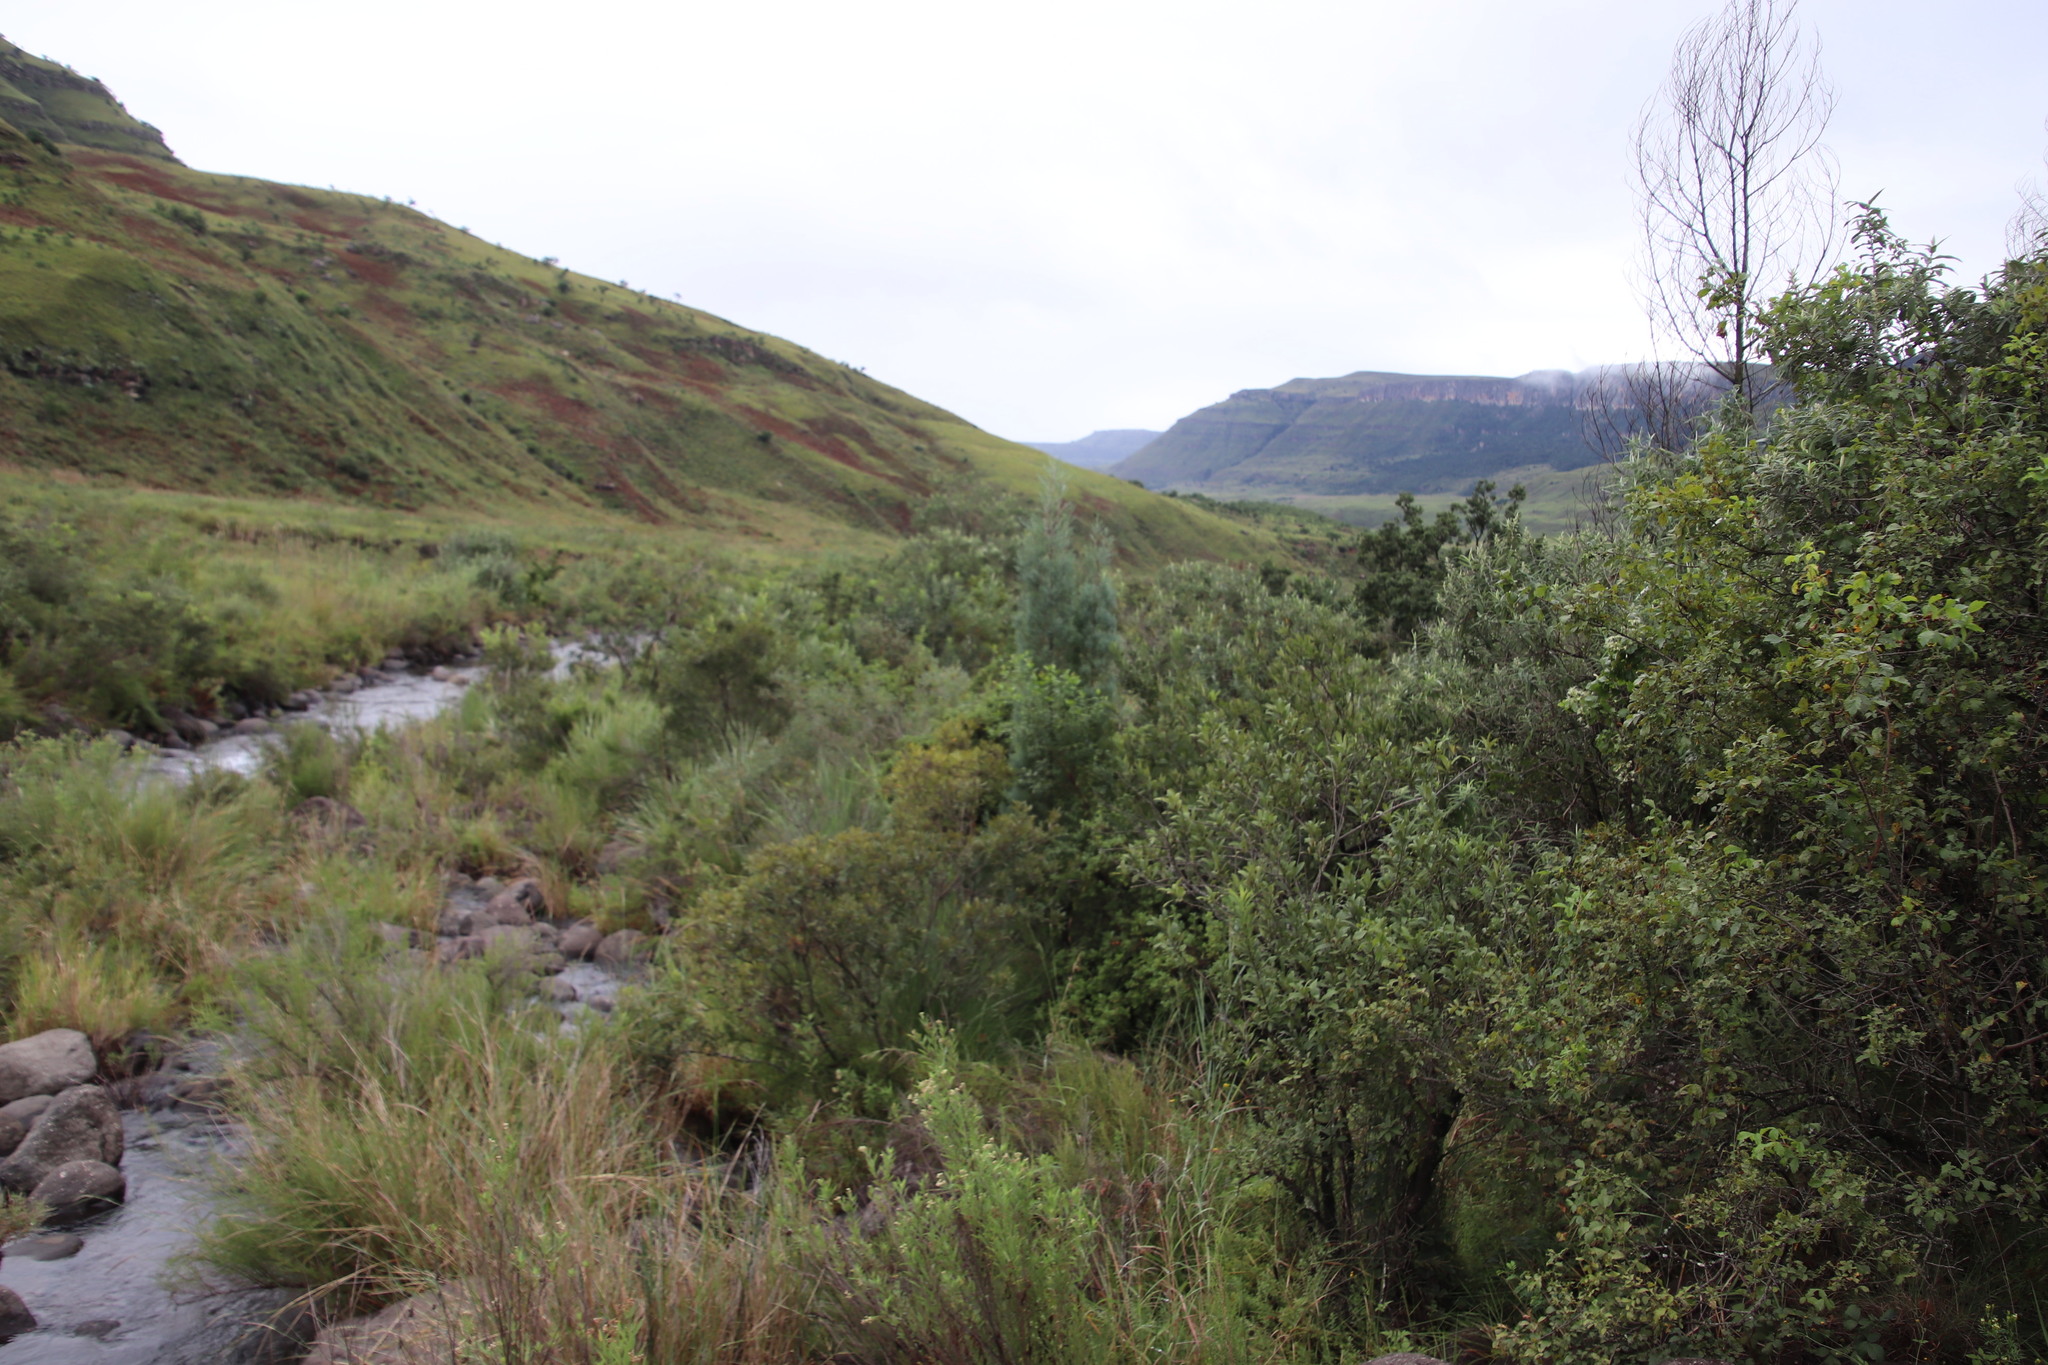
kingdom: Plantae
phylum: Tracheophyta
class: Pinopsida
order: Pinales
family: Cupressaceae
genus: Widdringtonia
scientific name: Widdringtonia nodiflora
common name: Cape cypress
